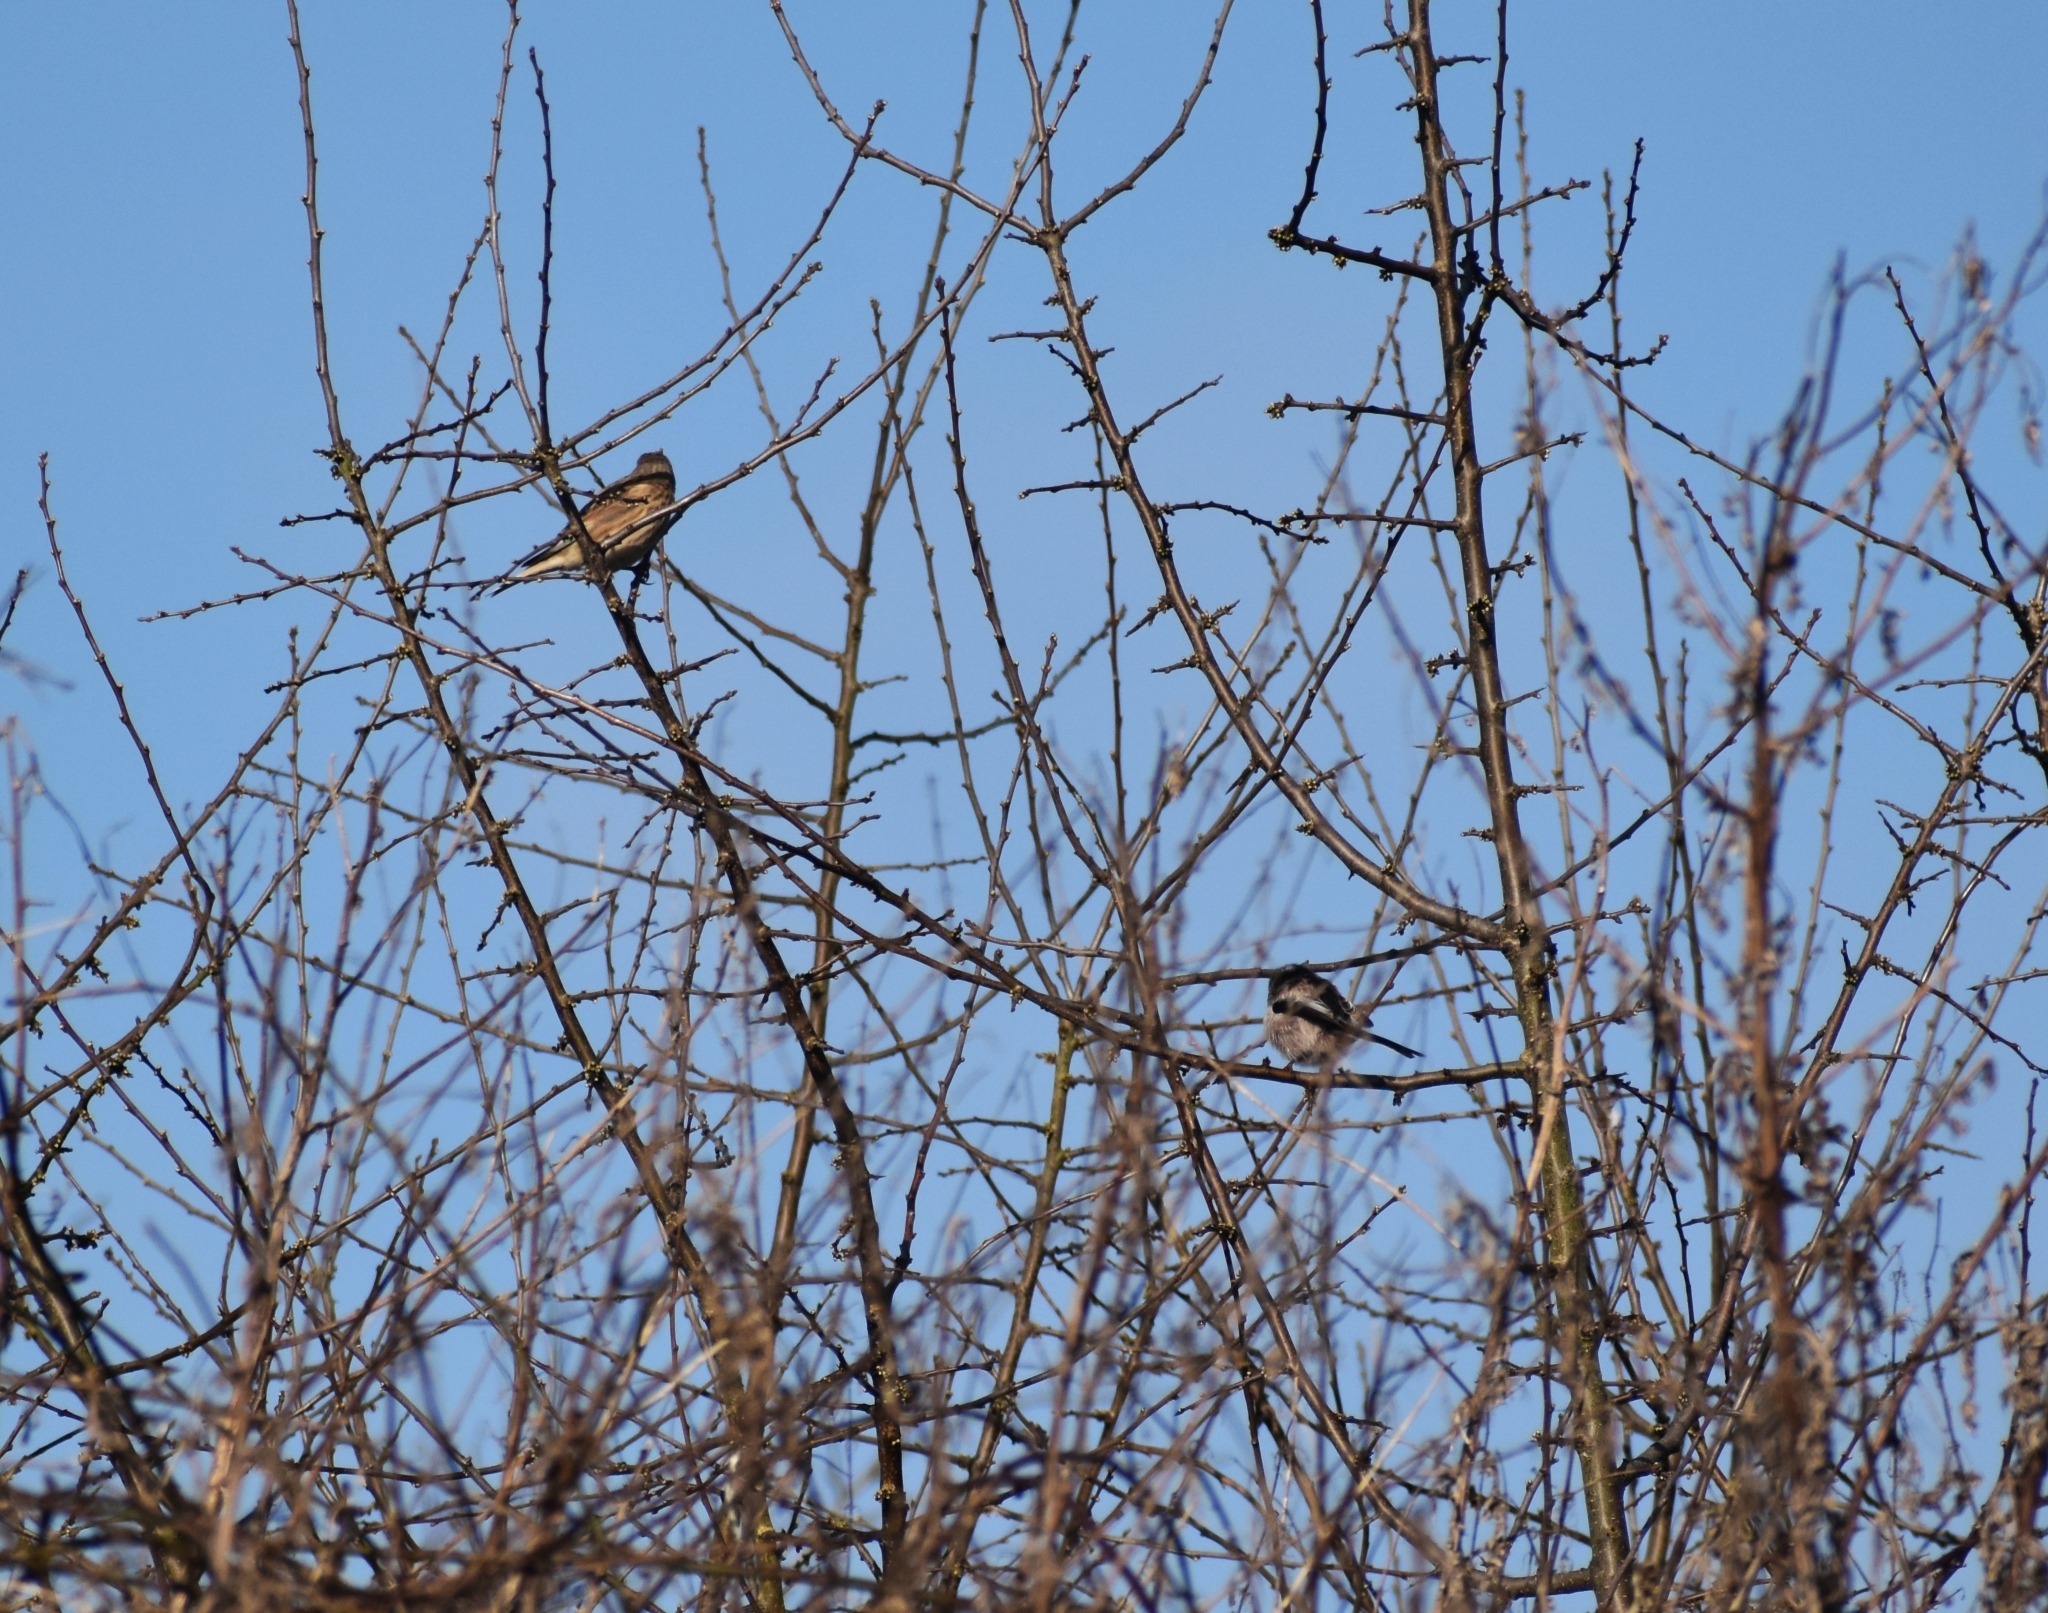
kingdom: Animalia
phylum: Chordata
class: Aves
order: Passeriformes
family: Aegithalidae
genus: Aegithalos
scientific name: Aegithalos caudatus
